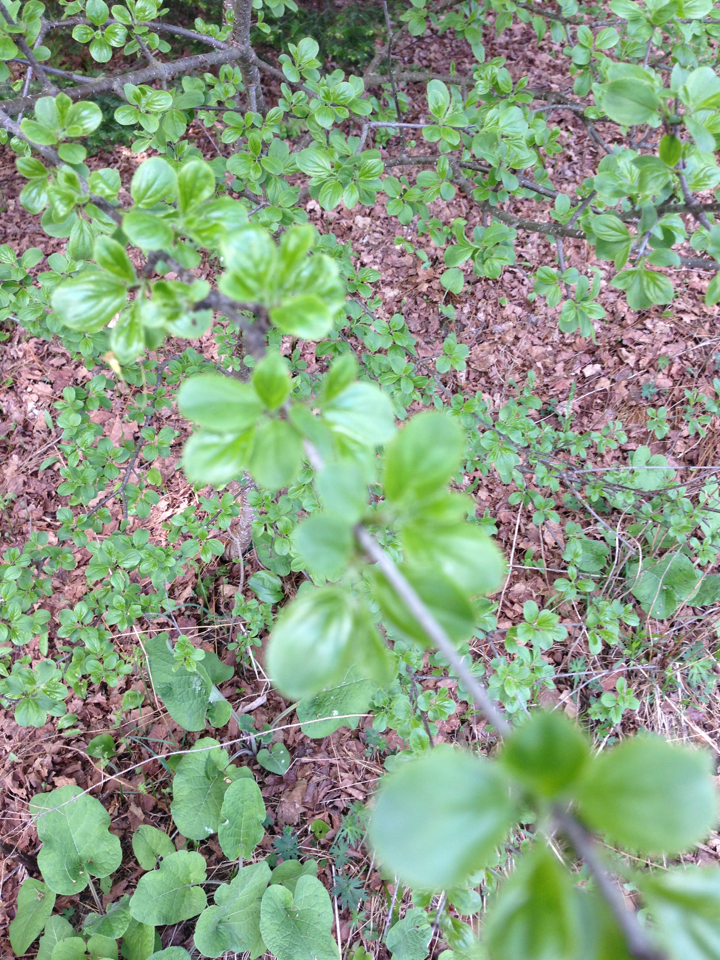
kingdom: Plantae
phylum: Tracheophyta
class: Magnoliopsida
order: Rosales
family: Rhamnaceae
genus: Rhamnus
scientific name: Rhamnus cathartica
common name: Common buckthorn
